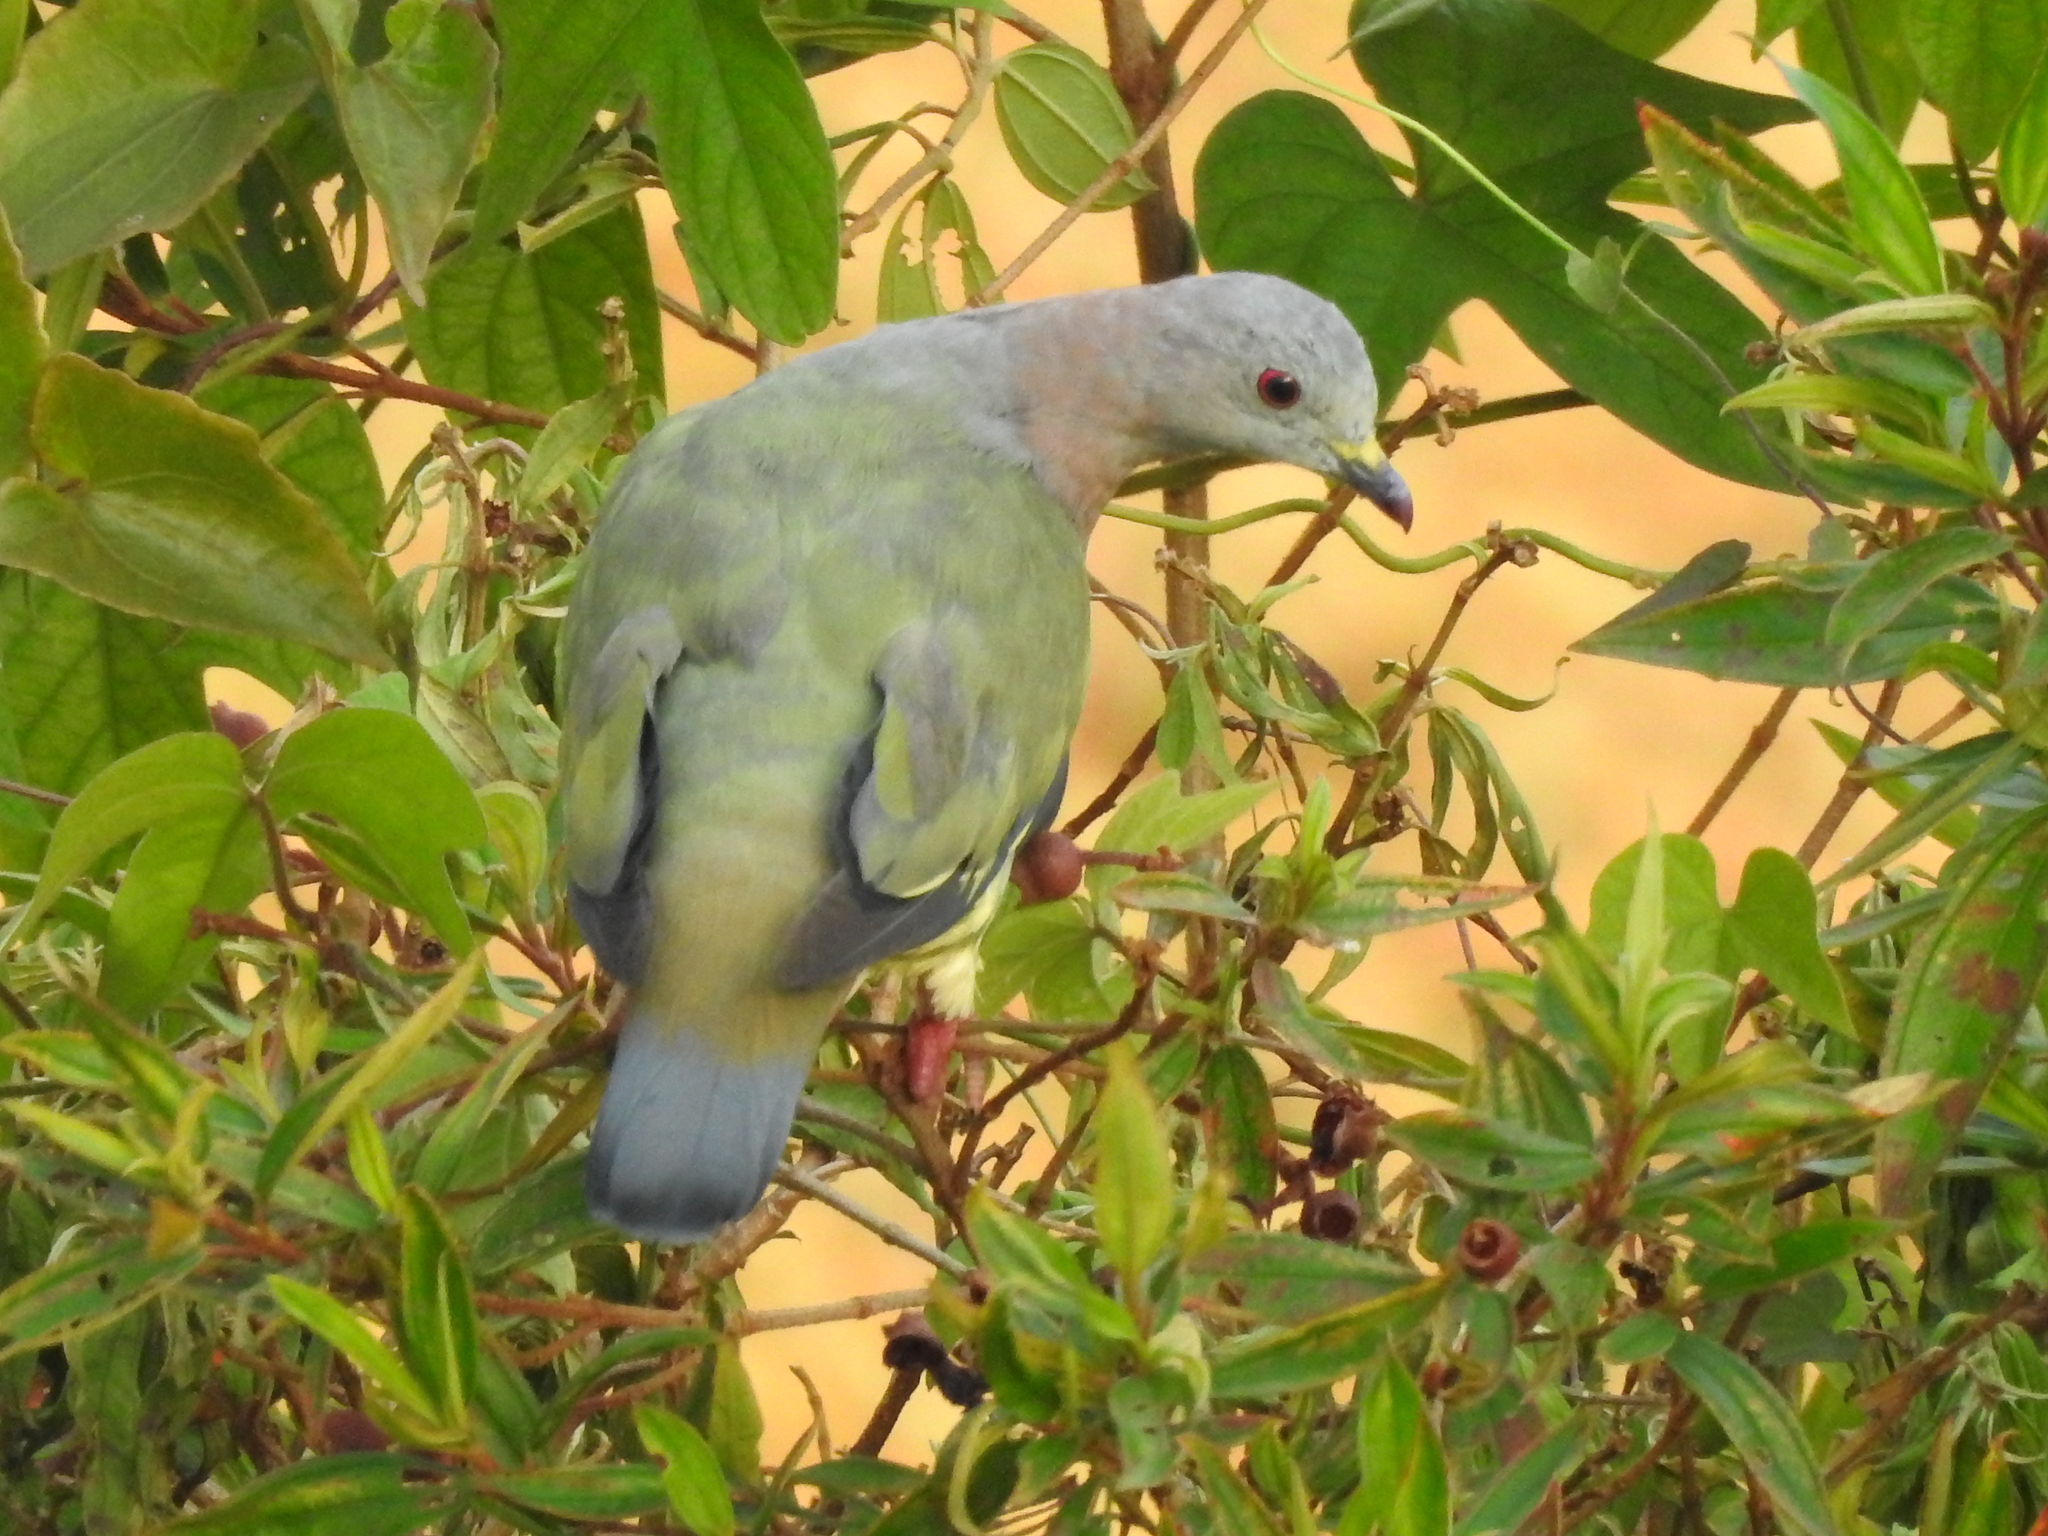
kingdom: Animalia
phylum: Chordata
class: Aves
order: Columbiformes
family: Columbidae
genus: Treron
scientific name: Treron vernans
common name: Pink-necked green pigeon
